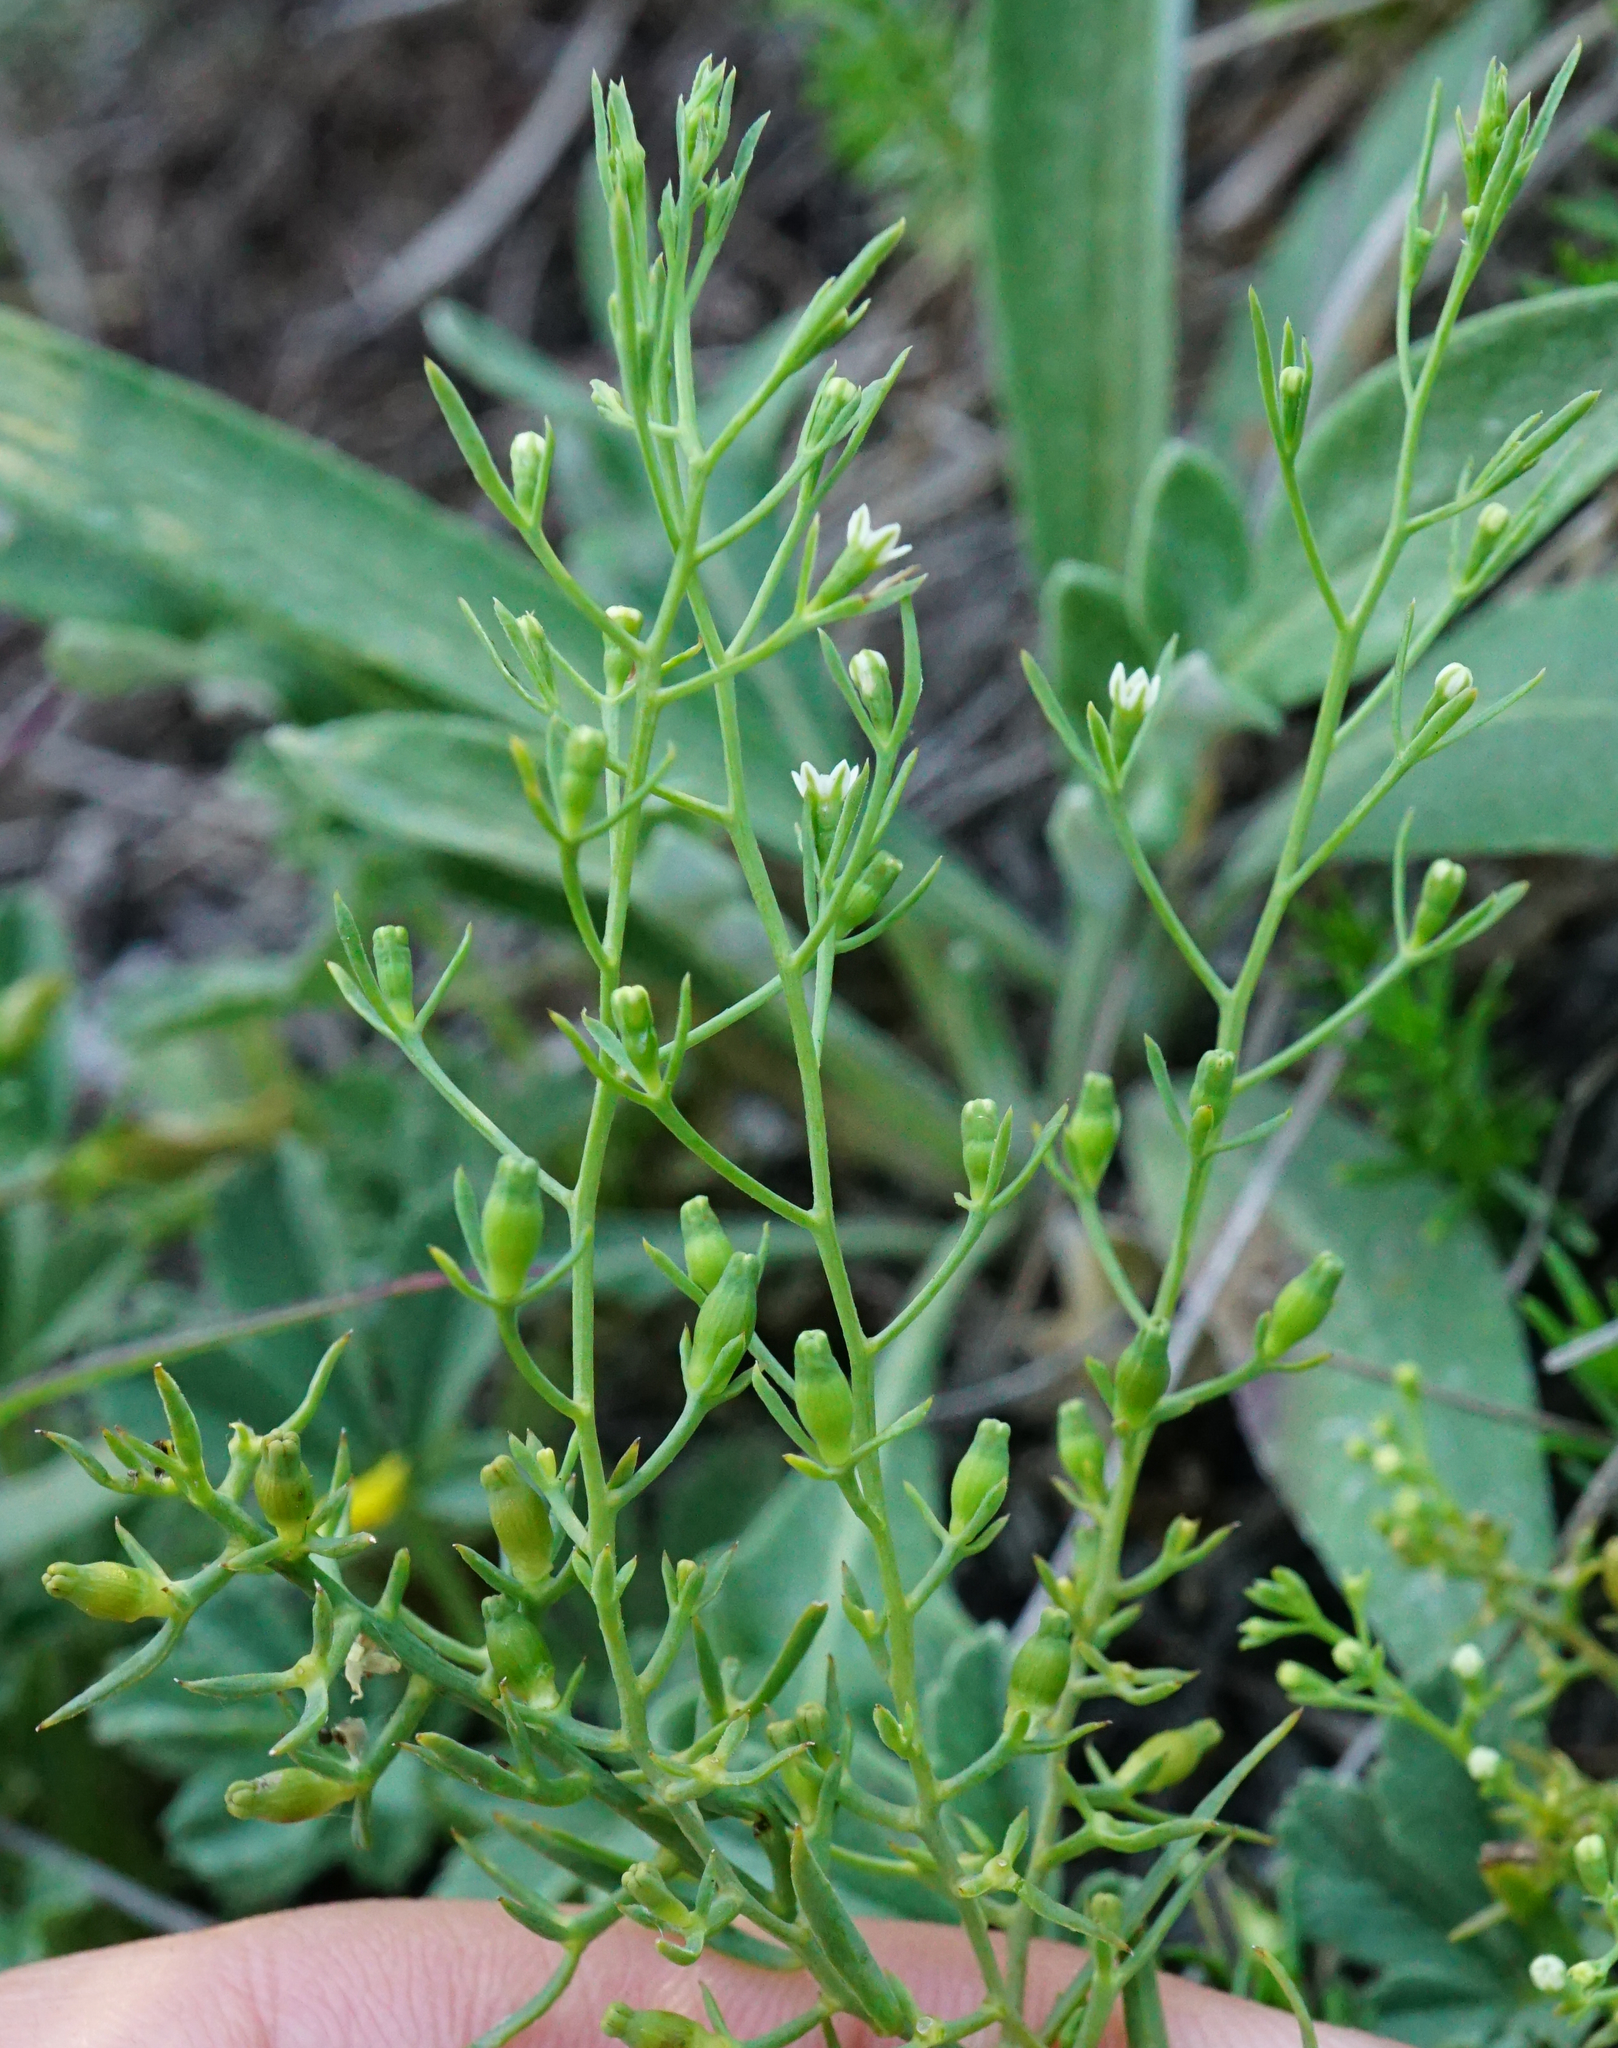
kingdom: Plantae
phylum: Tracheophyta
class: Magnoliopsida
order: Santalales
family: Thesiaceae
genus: Thesium
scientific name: Thesium ramosum
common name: Field thesium
